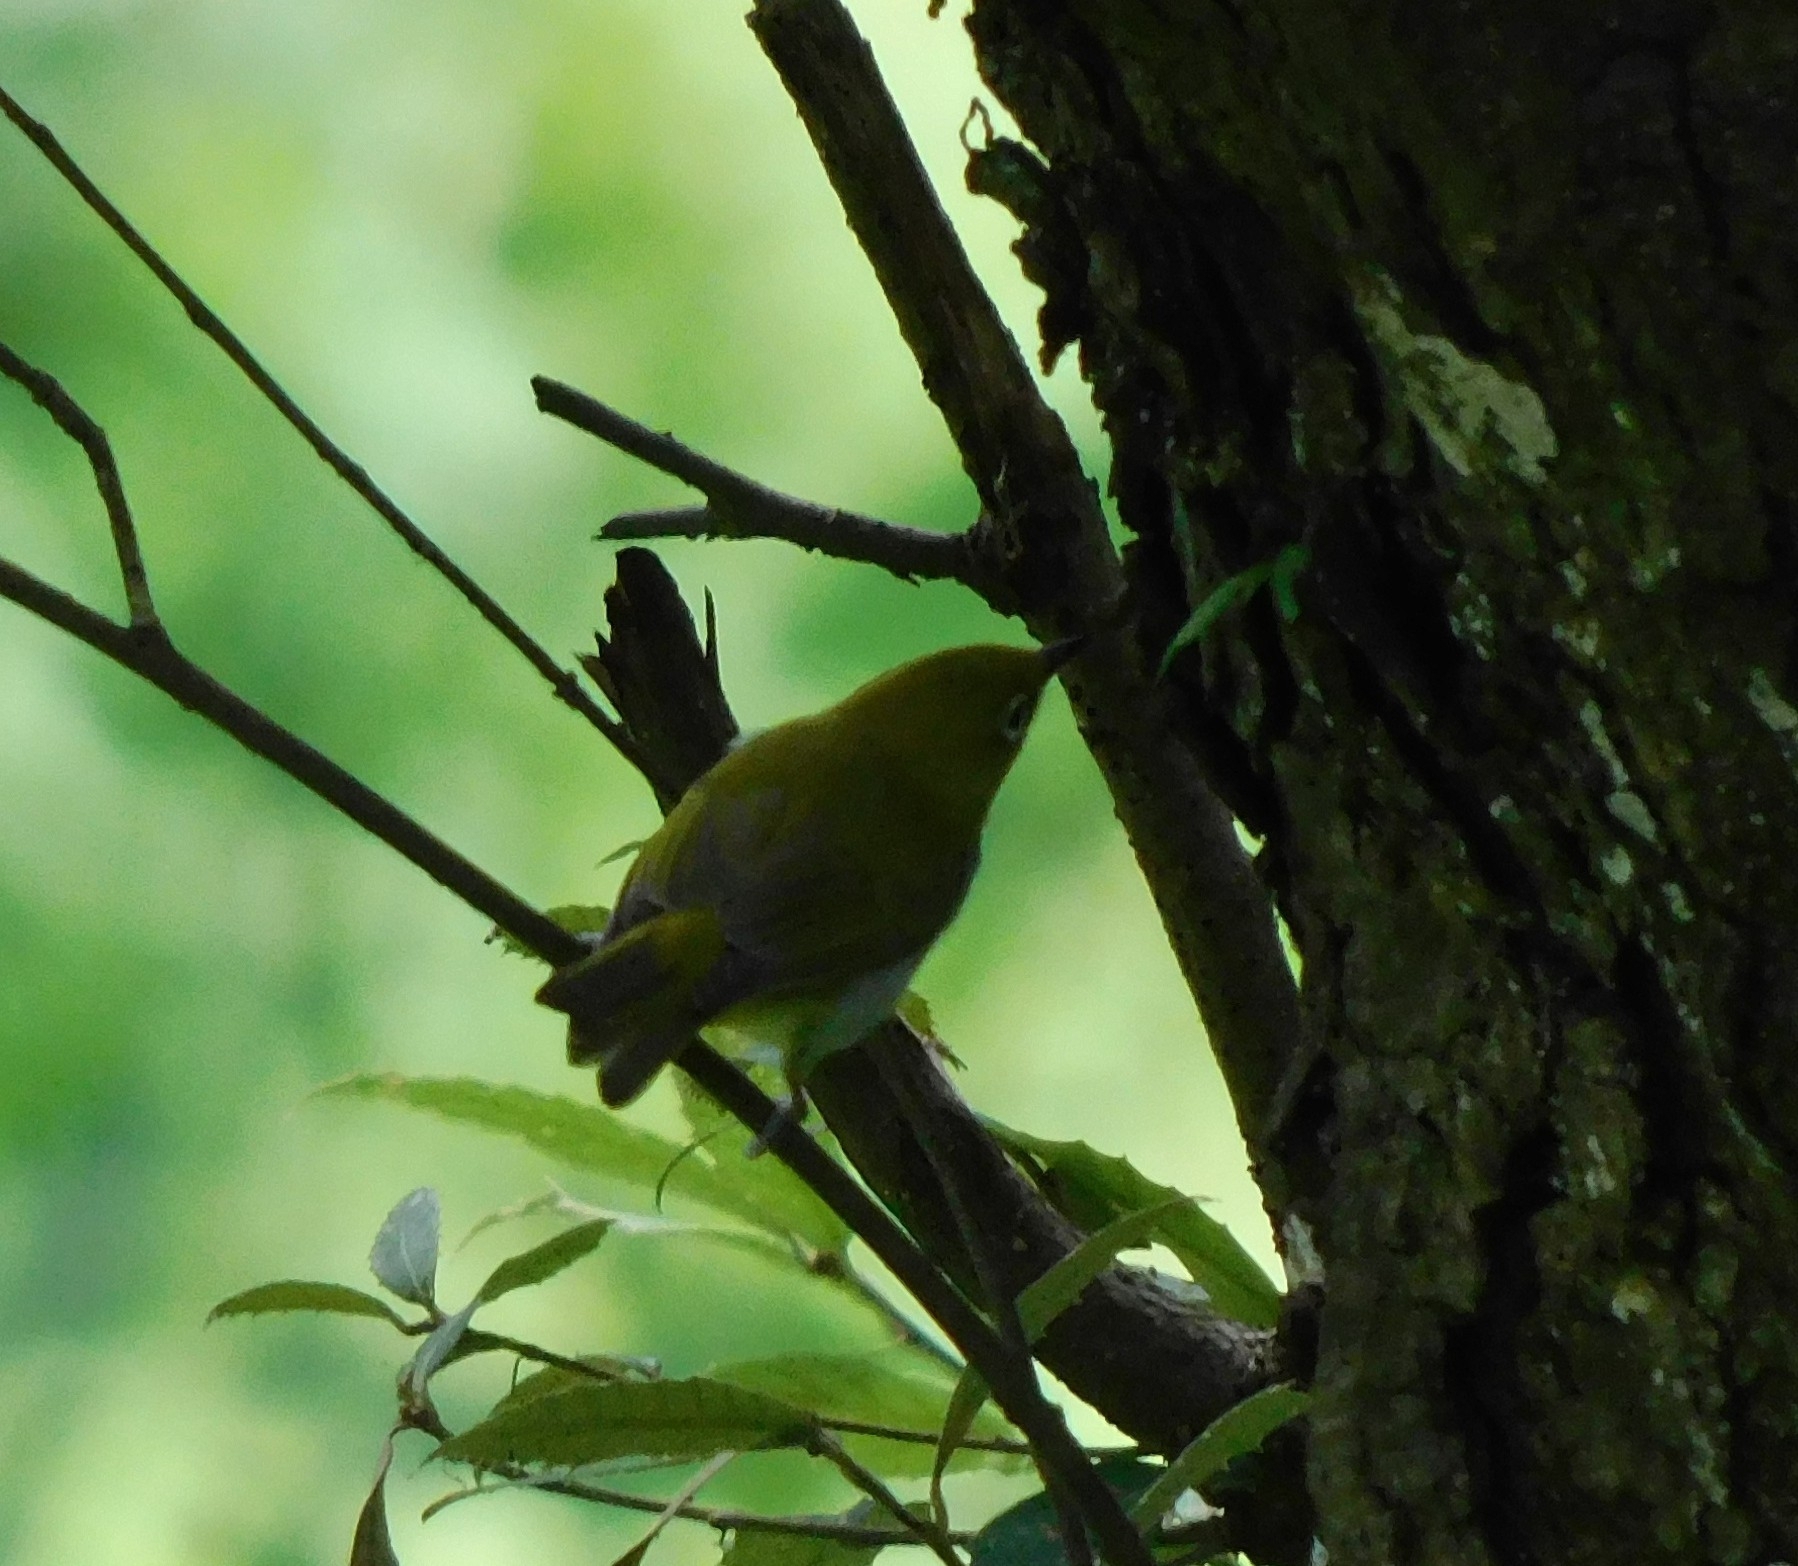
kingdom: Animalia
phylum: Chordata
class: Aves
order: Passeriformes
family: Zosteropidae
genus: Zosterops
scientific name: Zosterops palpebrosus
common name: Oriental white-eye
